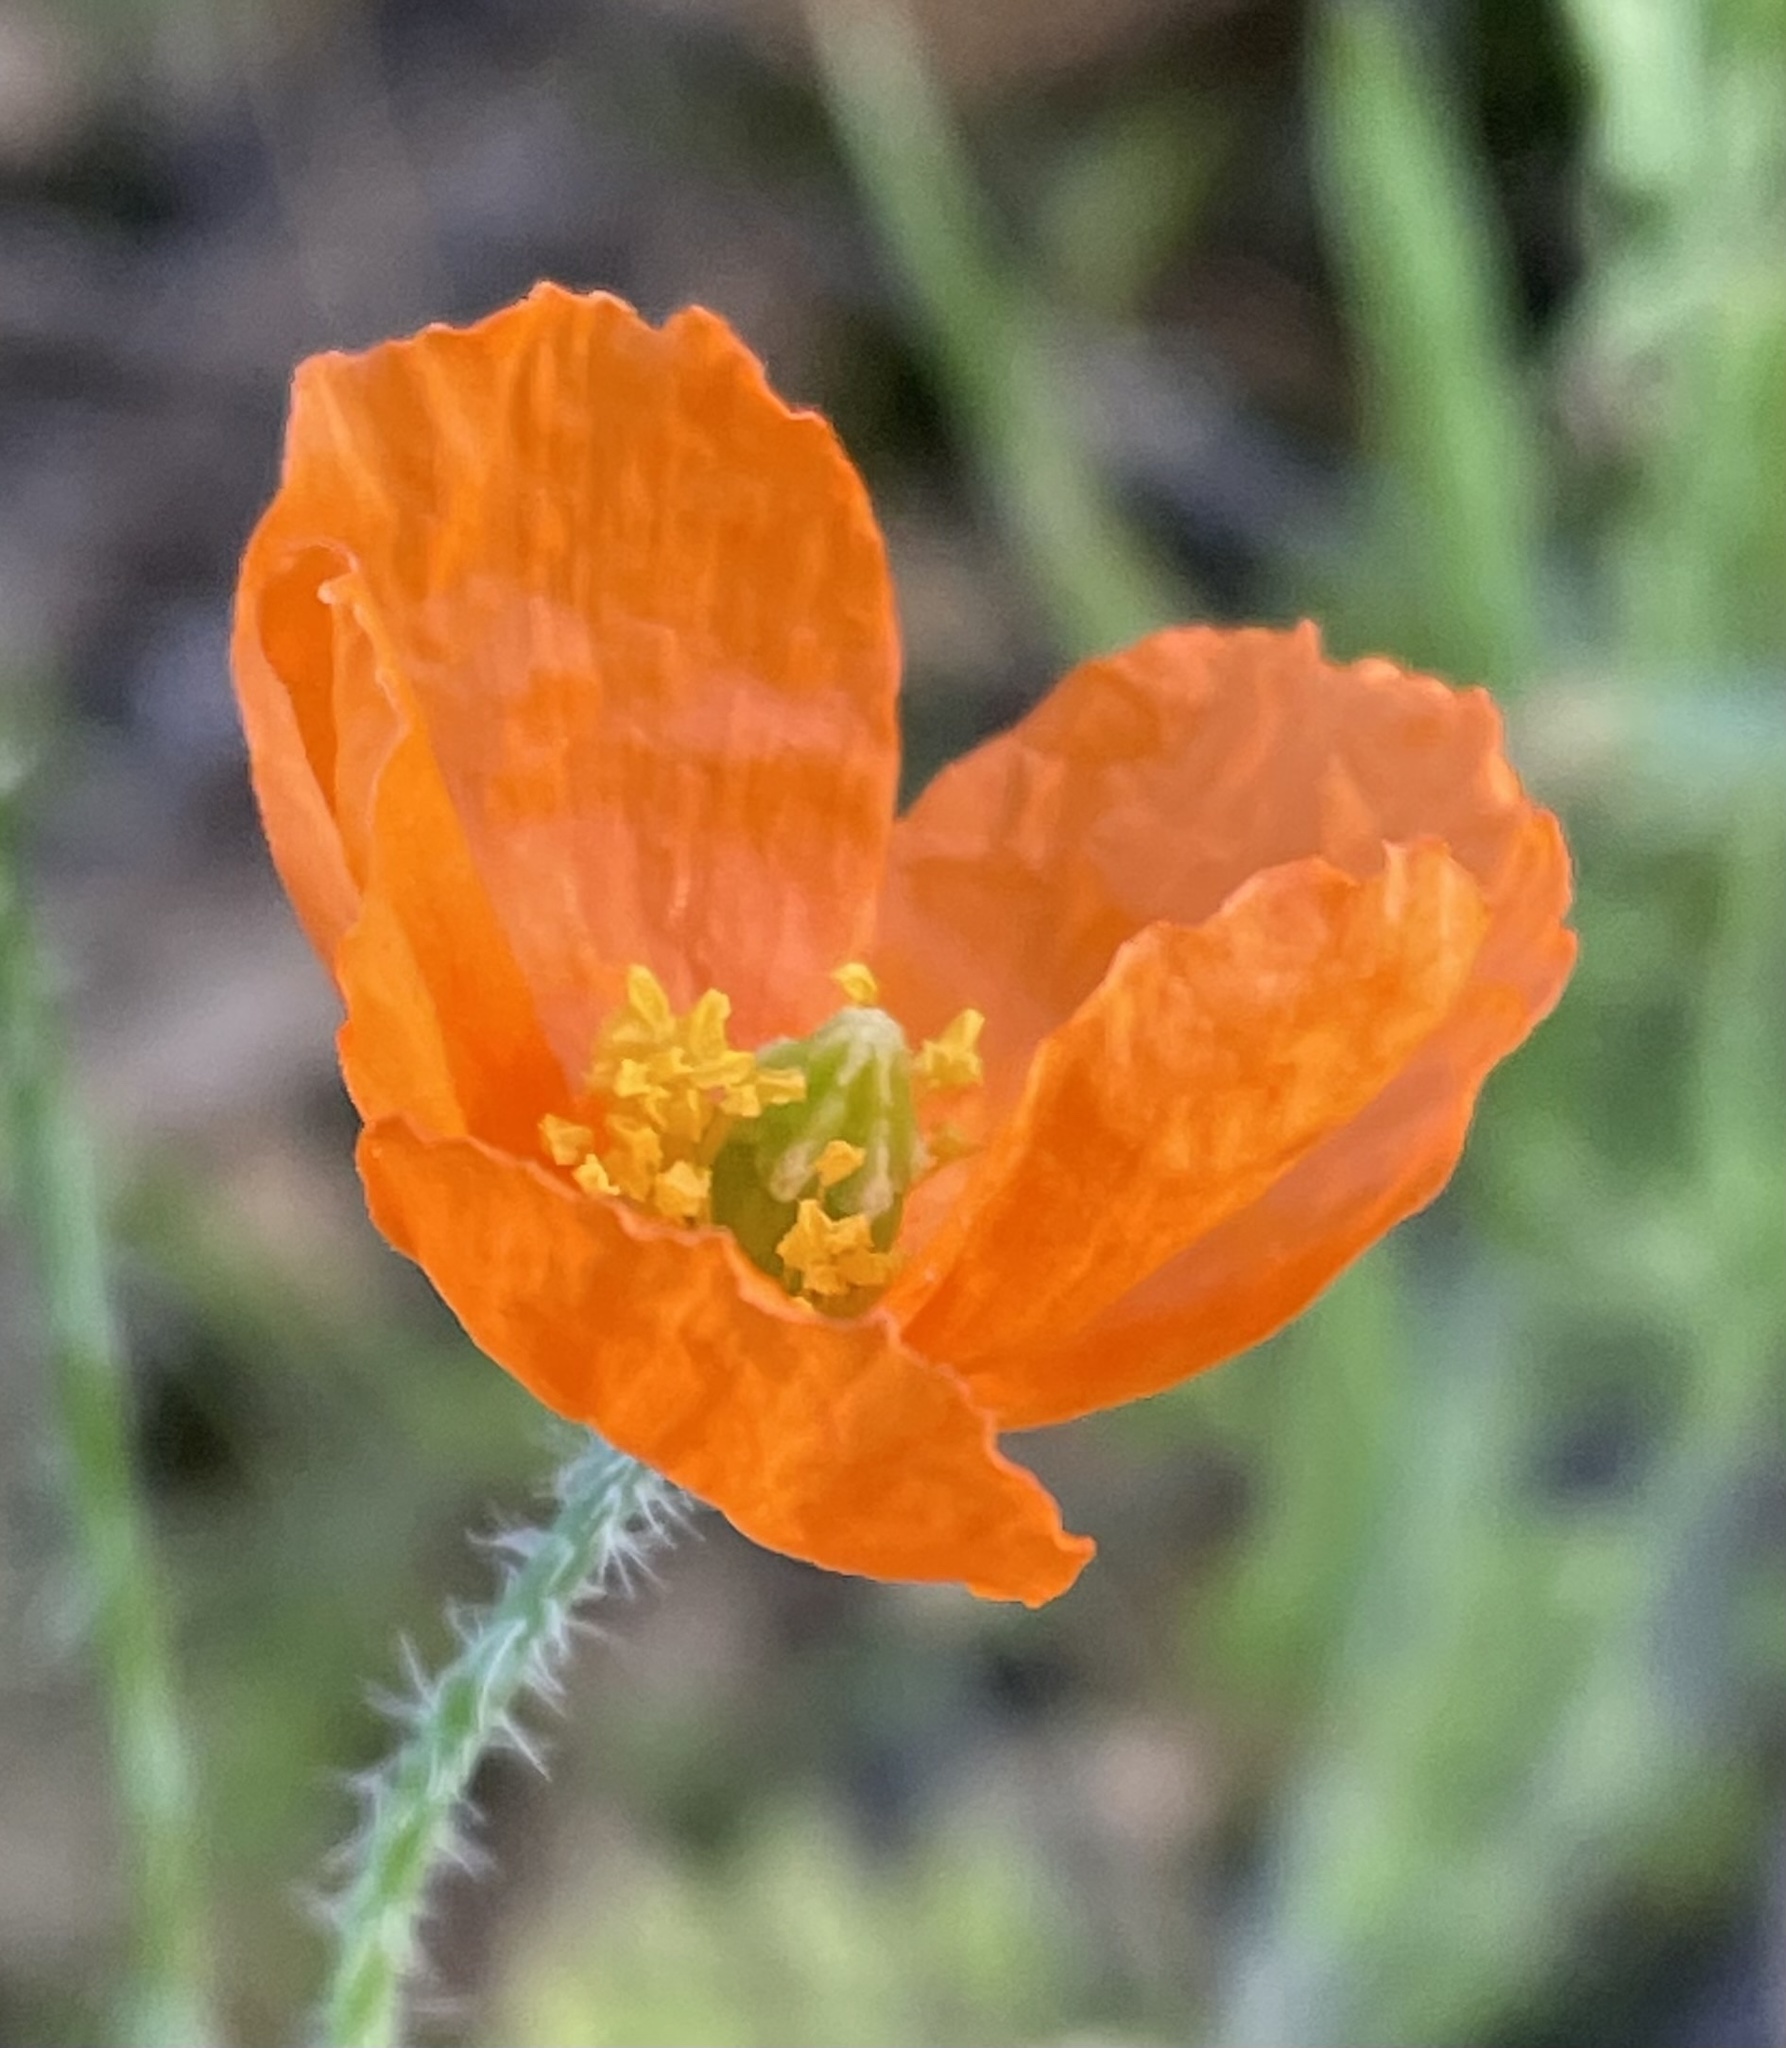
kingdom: Plantae
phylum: Tracheophyta
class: Magnoliopsida
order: Ranunculales
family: Papaveraceae
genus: Papaver
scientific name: Papaver californicum
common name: Fire poppy
